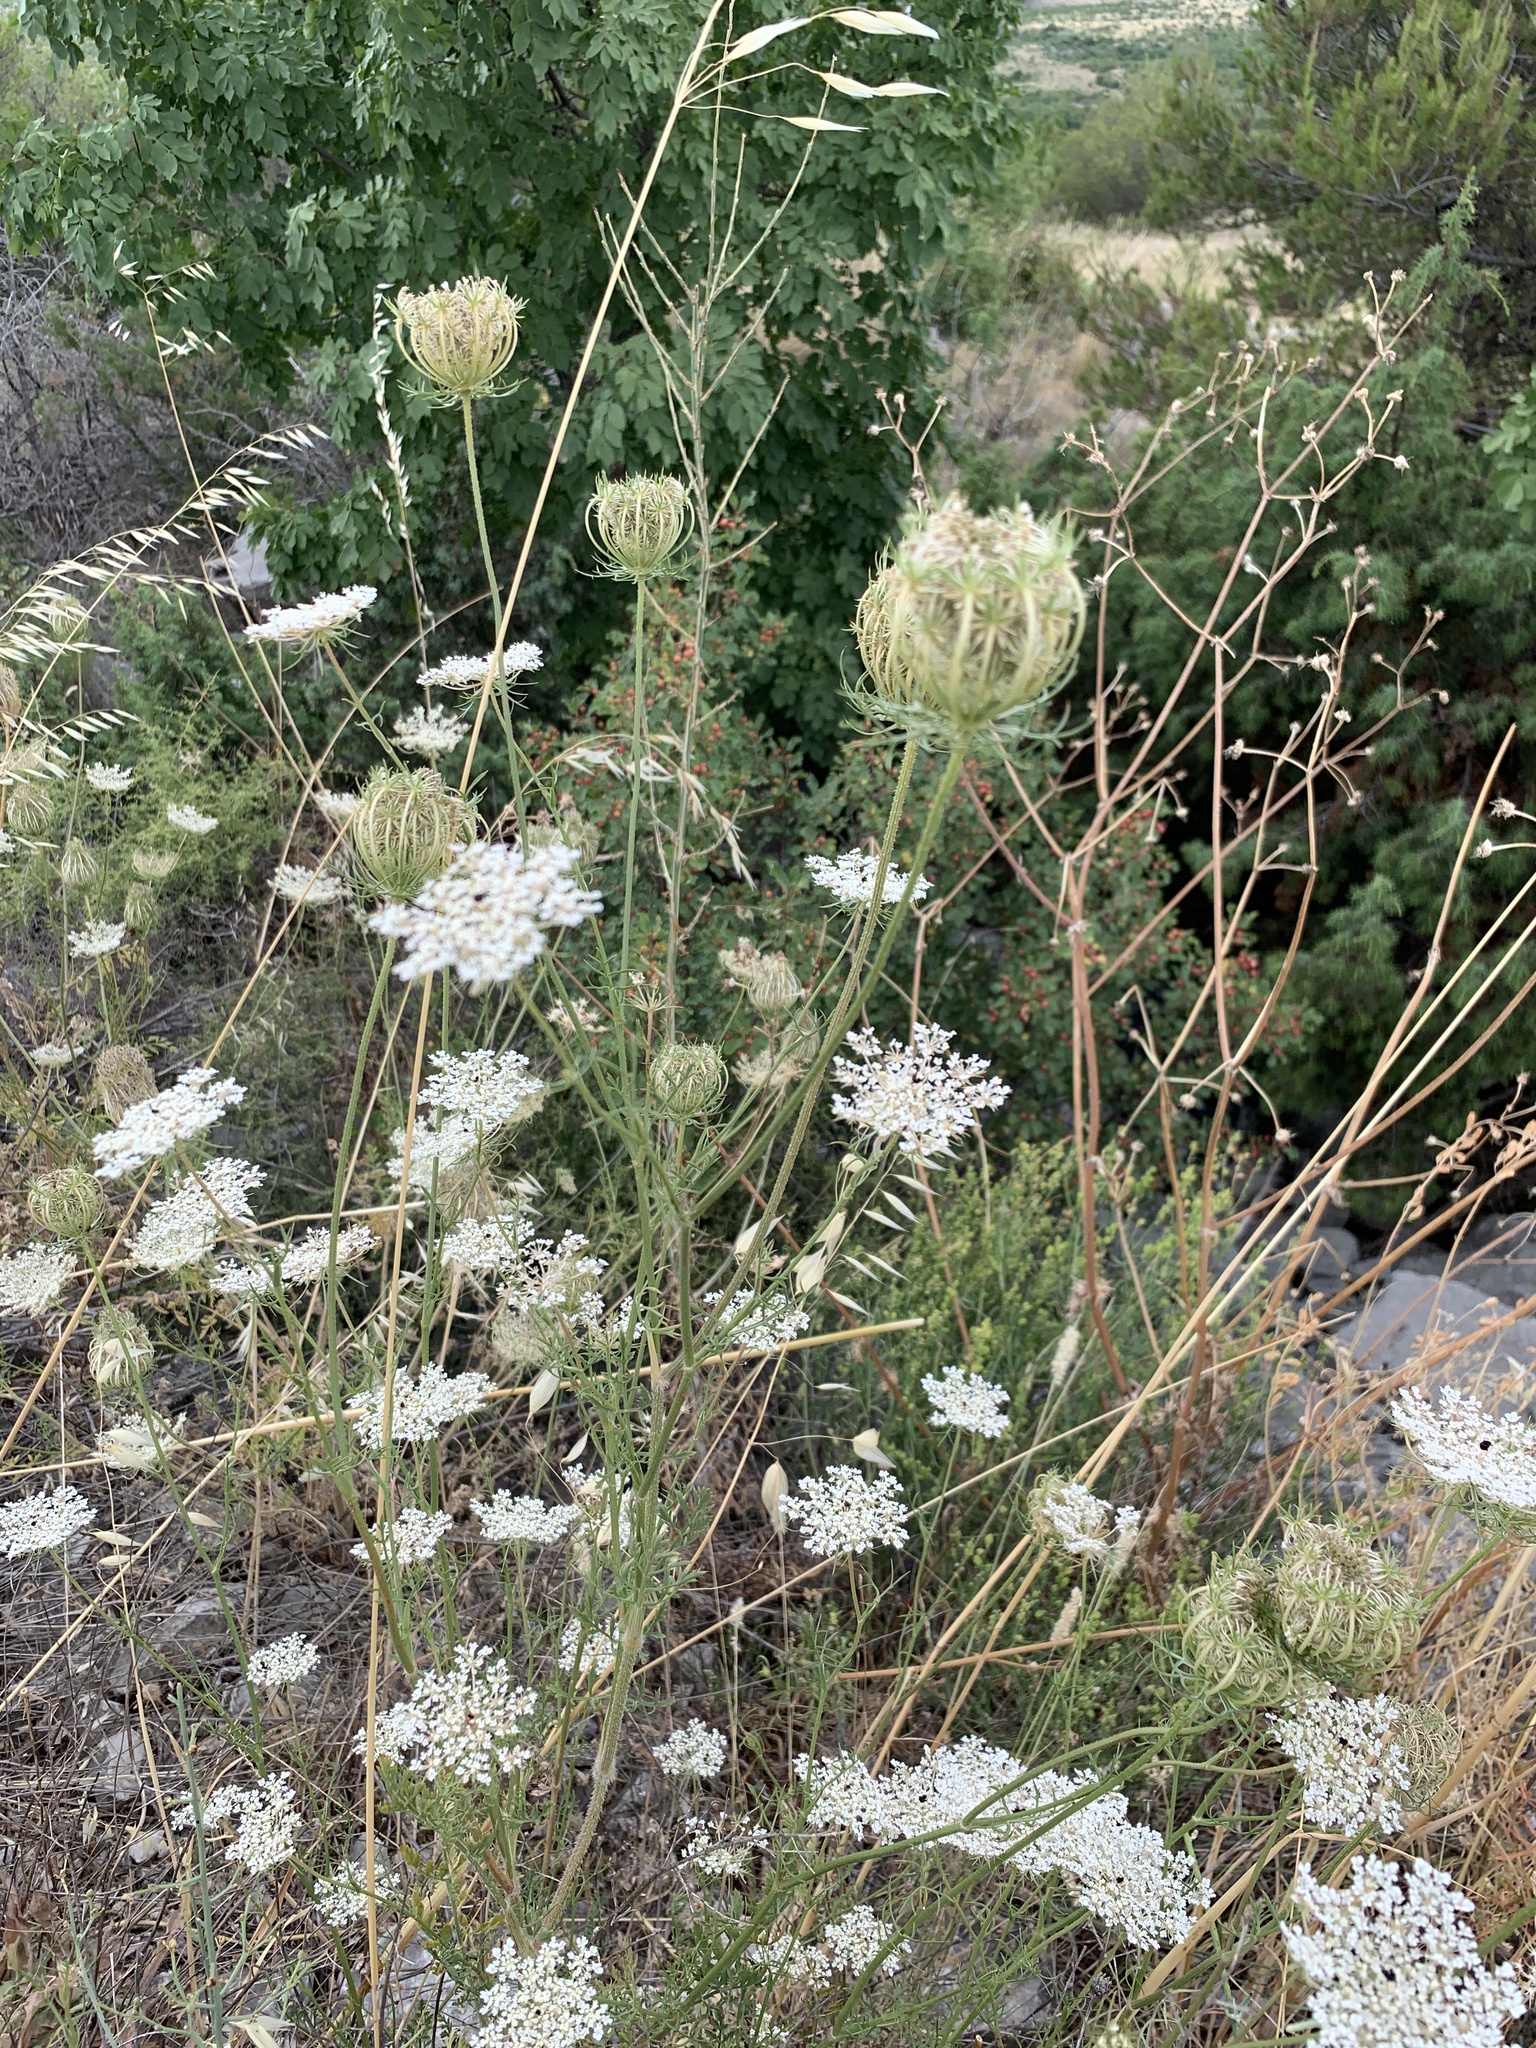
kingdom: Plantae
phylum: Tracheophyta
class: Magnoliopsida
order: Apiales
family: Apiaceae
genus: Daucus
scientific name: Daucus carota
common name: Wild carrot
